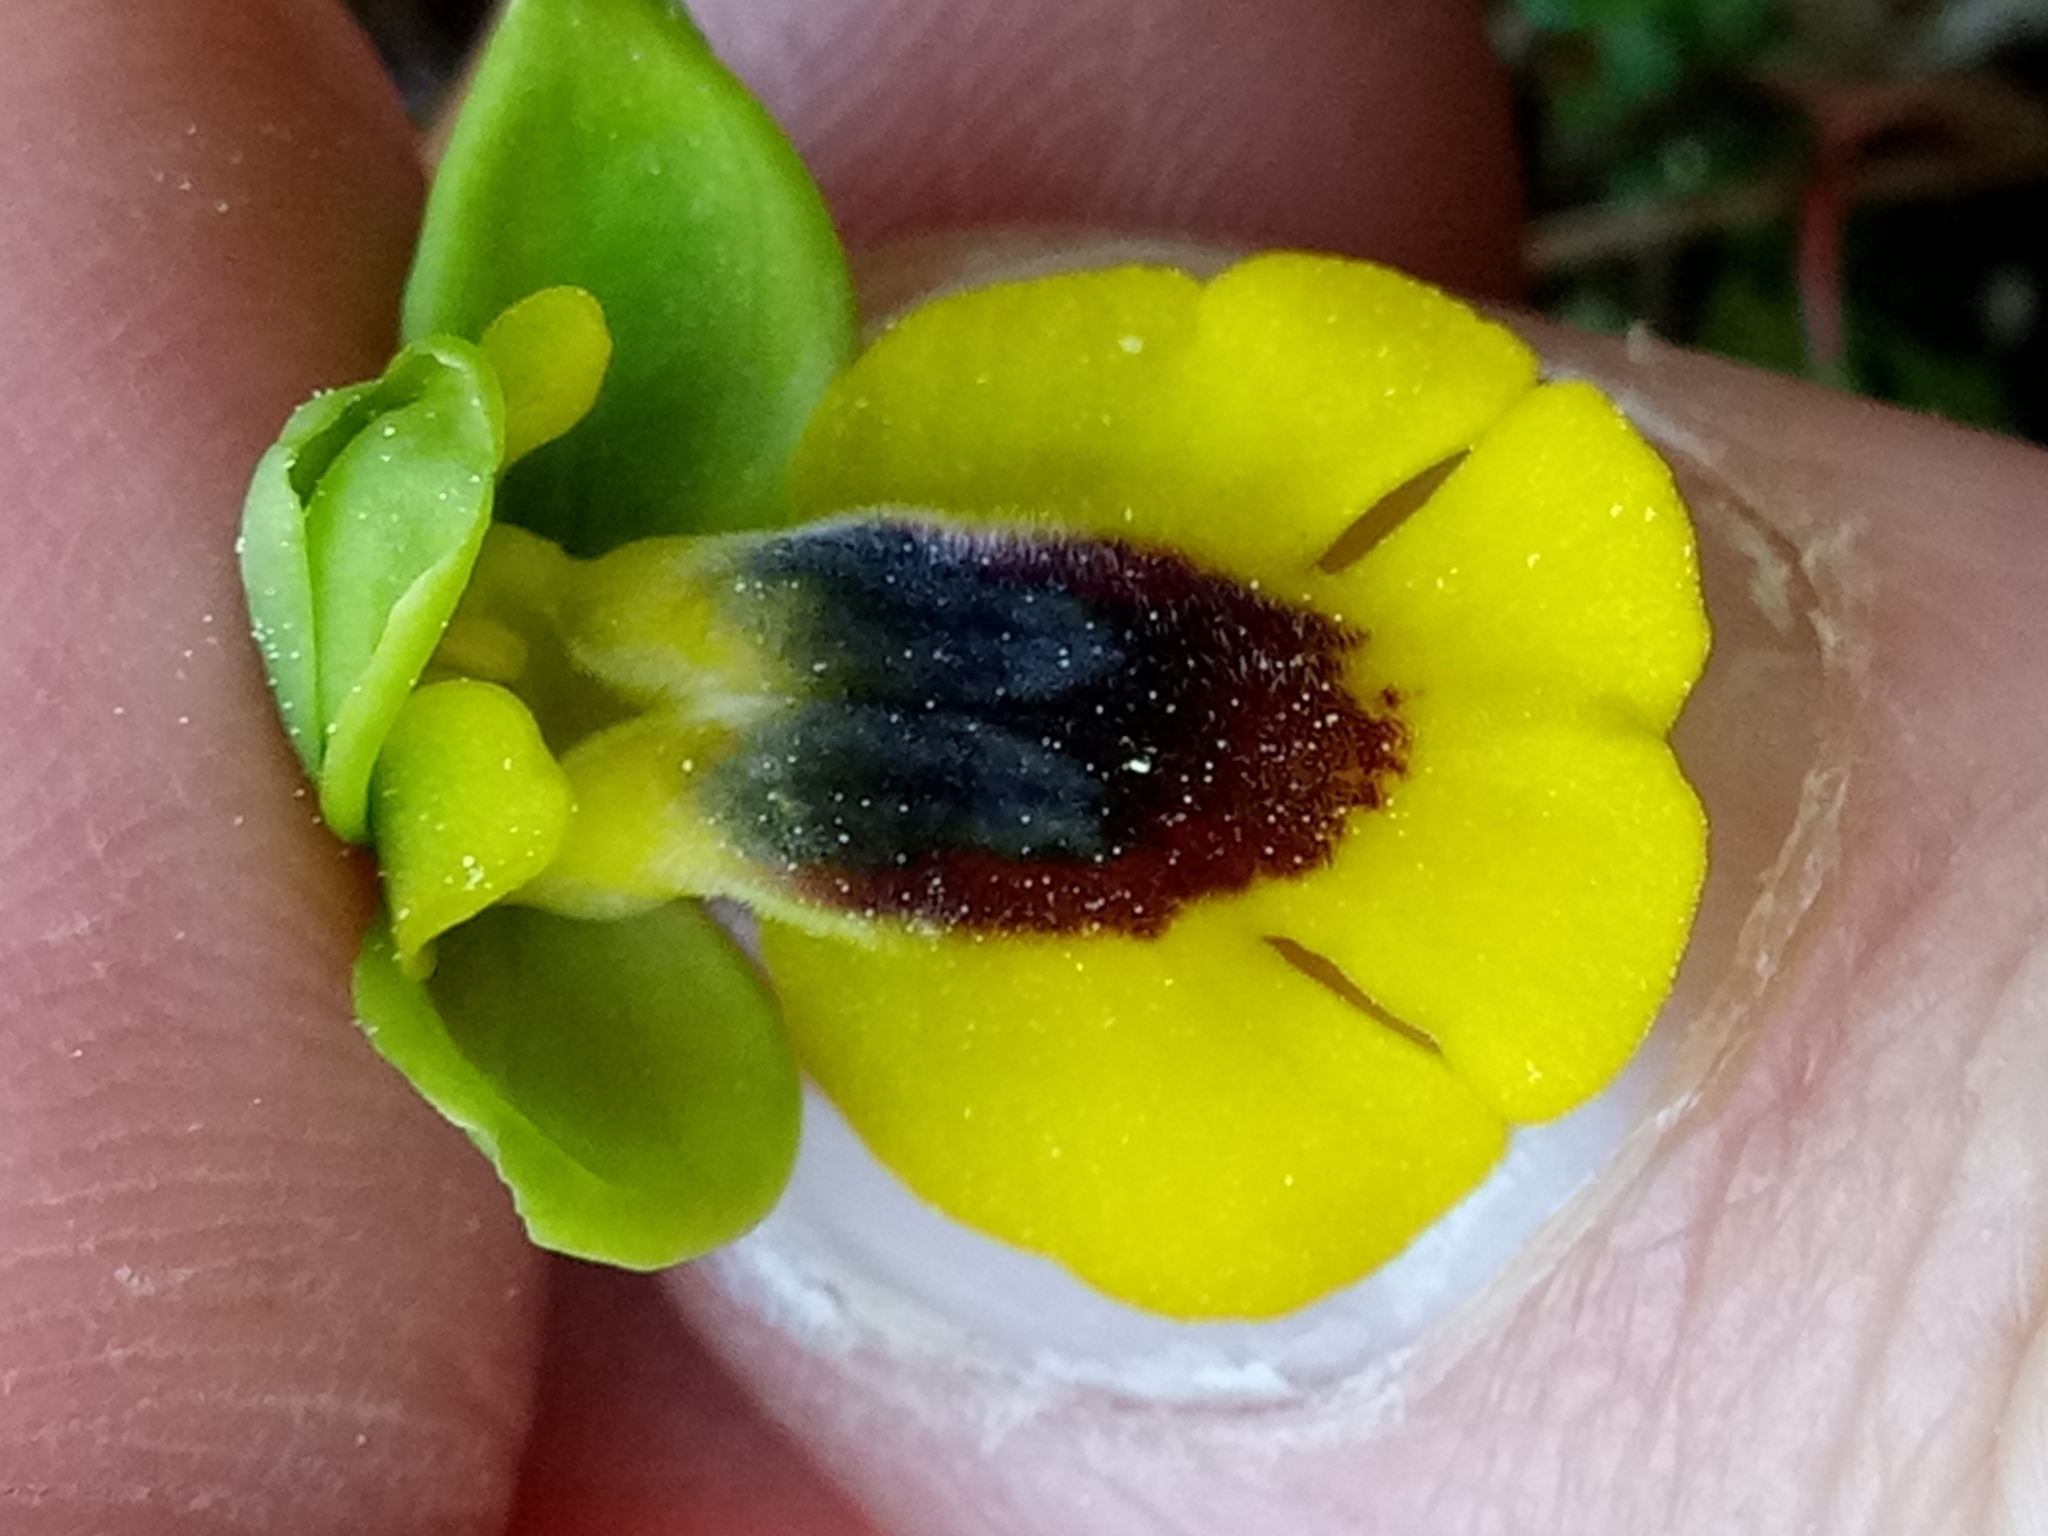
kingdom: Plantae
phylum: Tracheophyta
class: Liliopsida
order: Asparagales
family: Orchidaceae
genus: Ophrys
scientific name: Ophrys lutea
